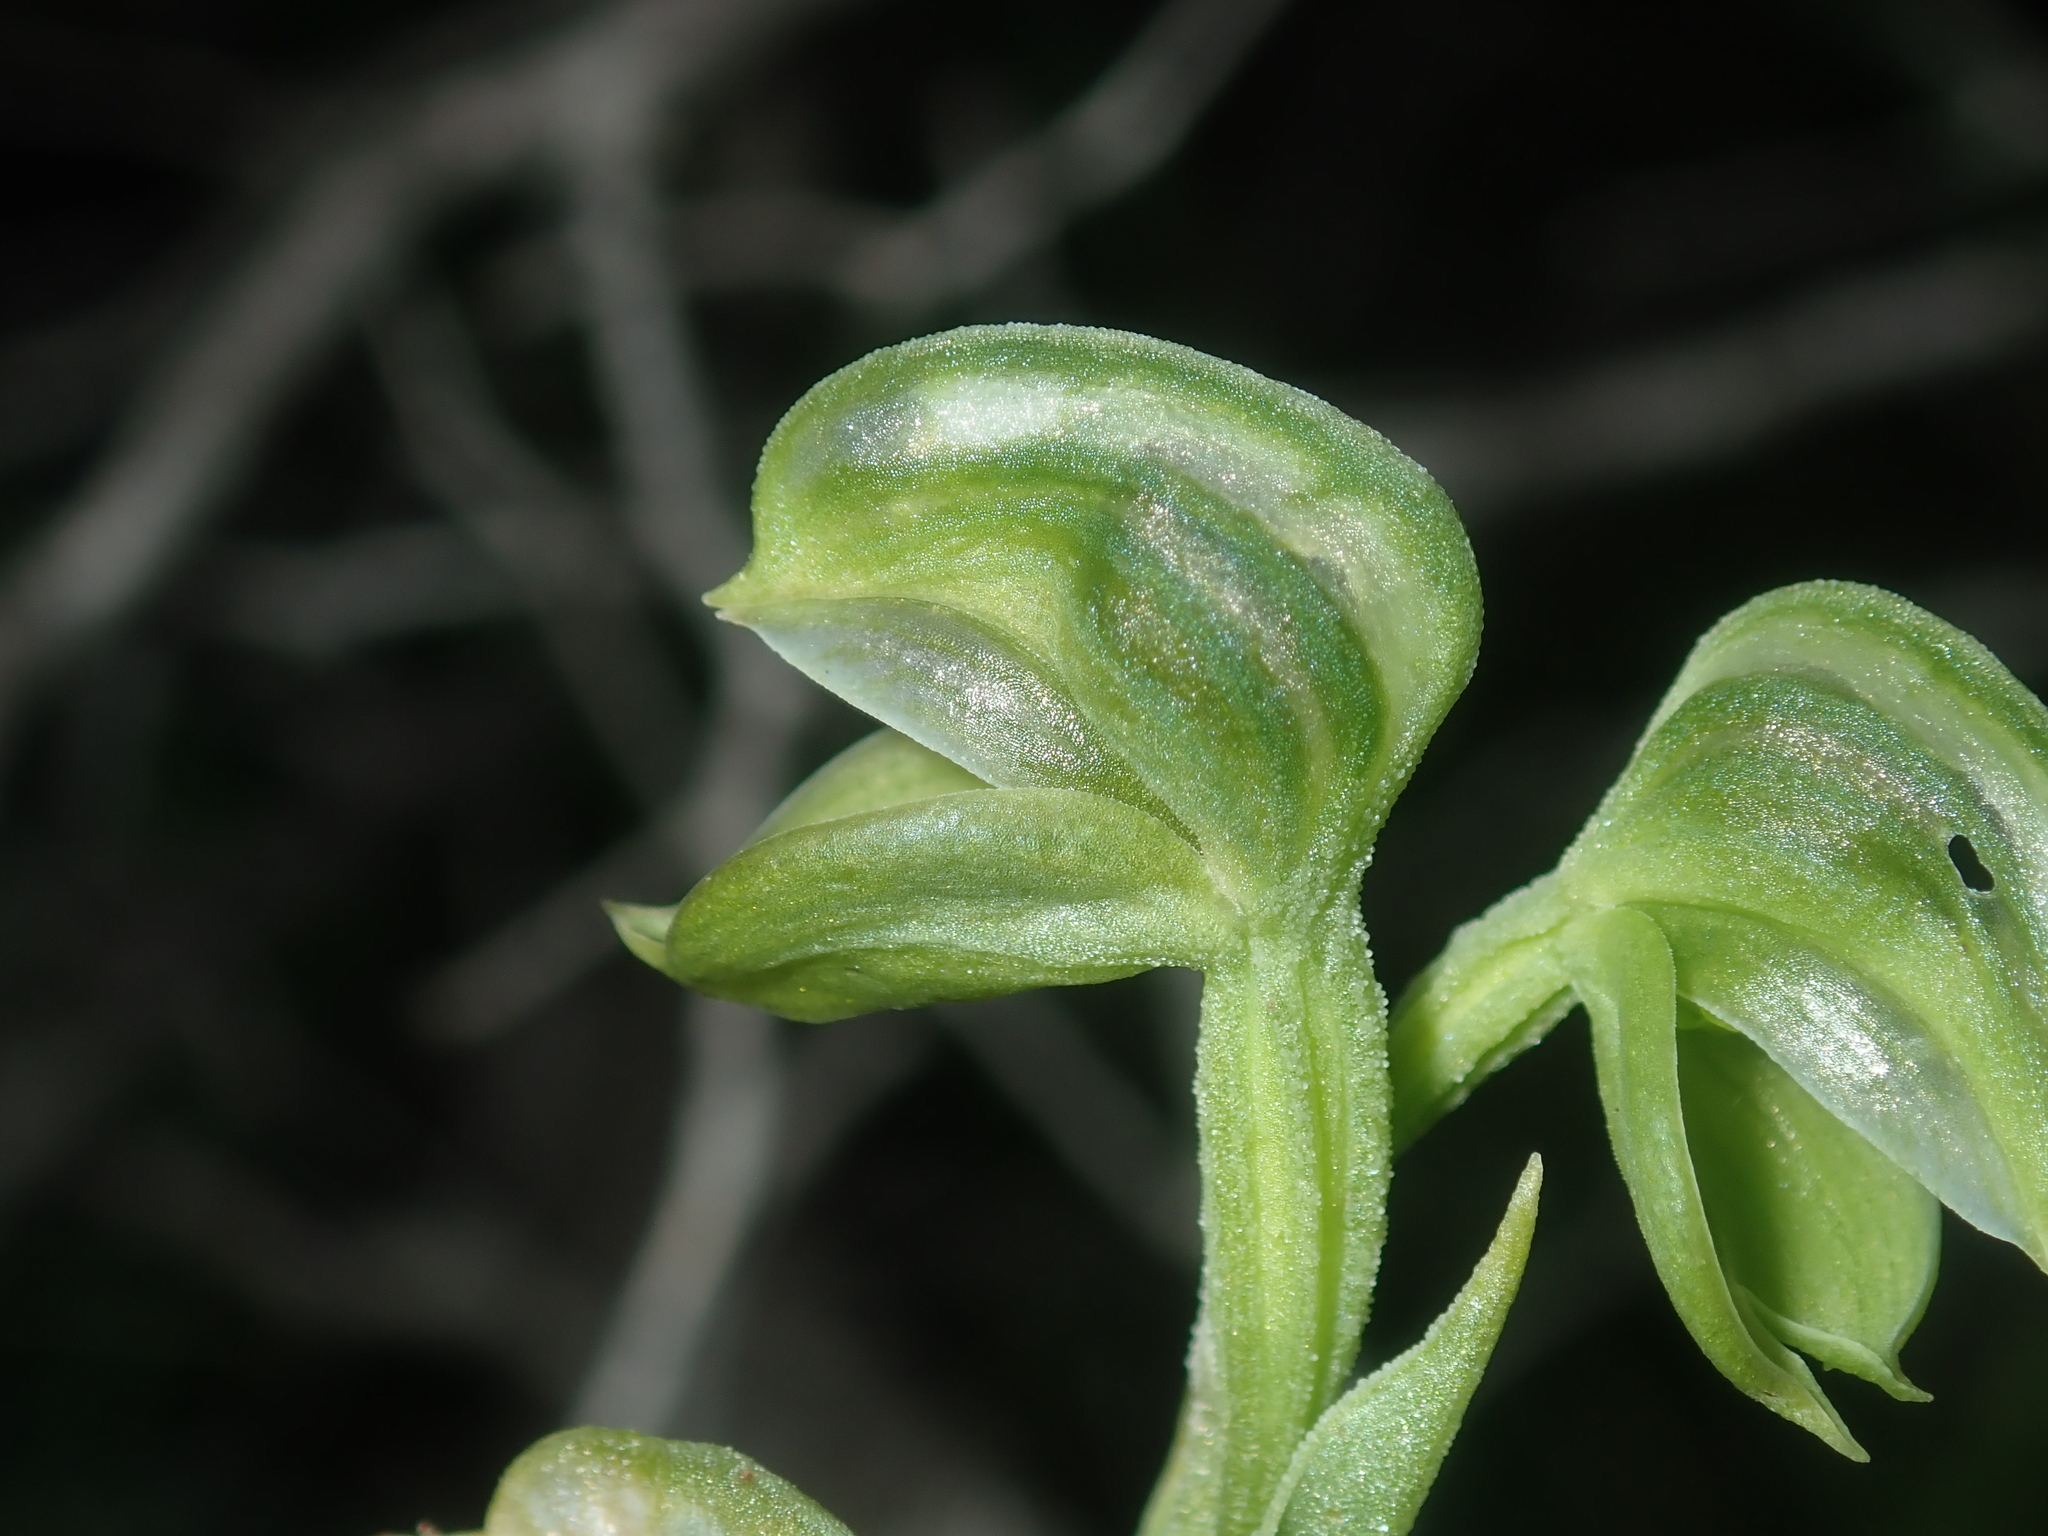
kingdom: Plantae
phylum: Tracheophyta
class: Liliopsida
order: Asparagales
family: Orchidaceae
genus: Pterostylis
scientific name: Pterostylis vittata
